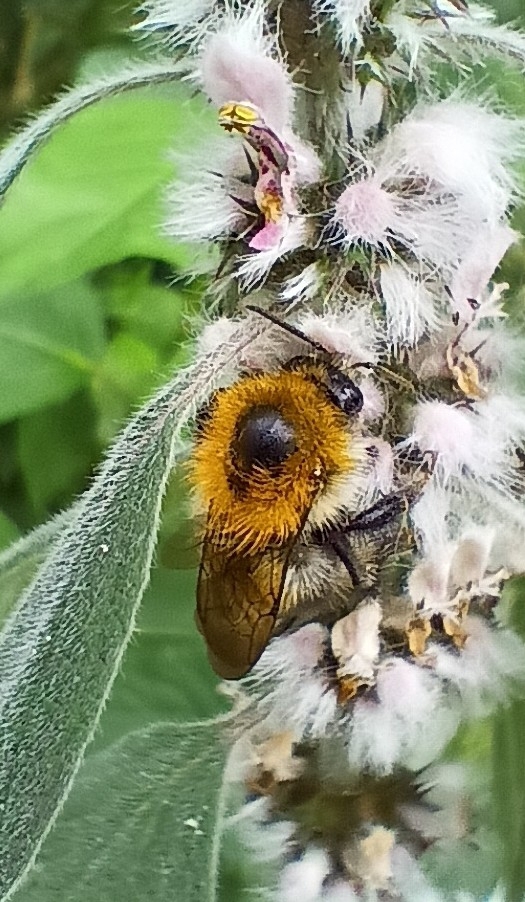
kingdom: Animalia
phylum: Arthropoda
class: Insecta
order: Hymenoptera
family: Apidae
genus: Bombus
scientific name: Bombus pascuorum
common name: Common carder bee
